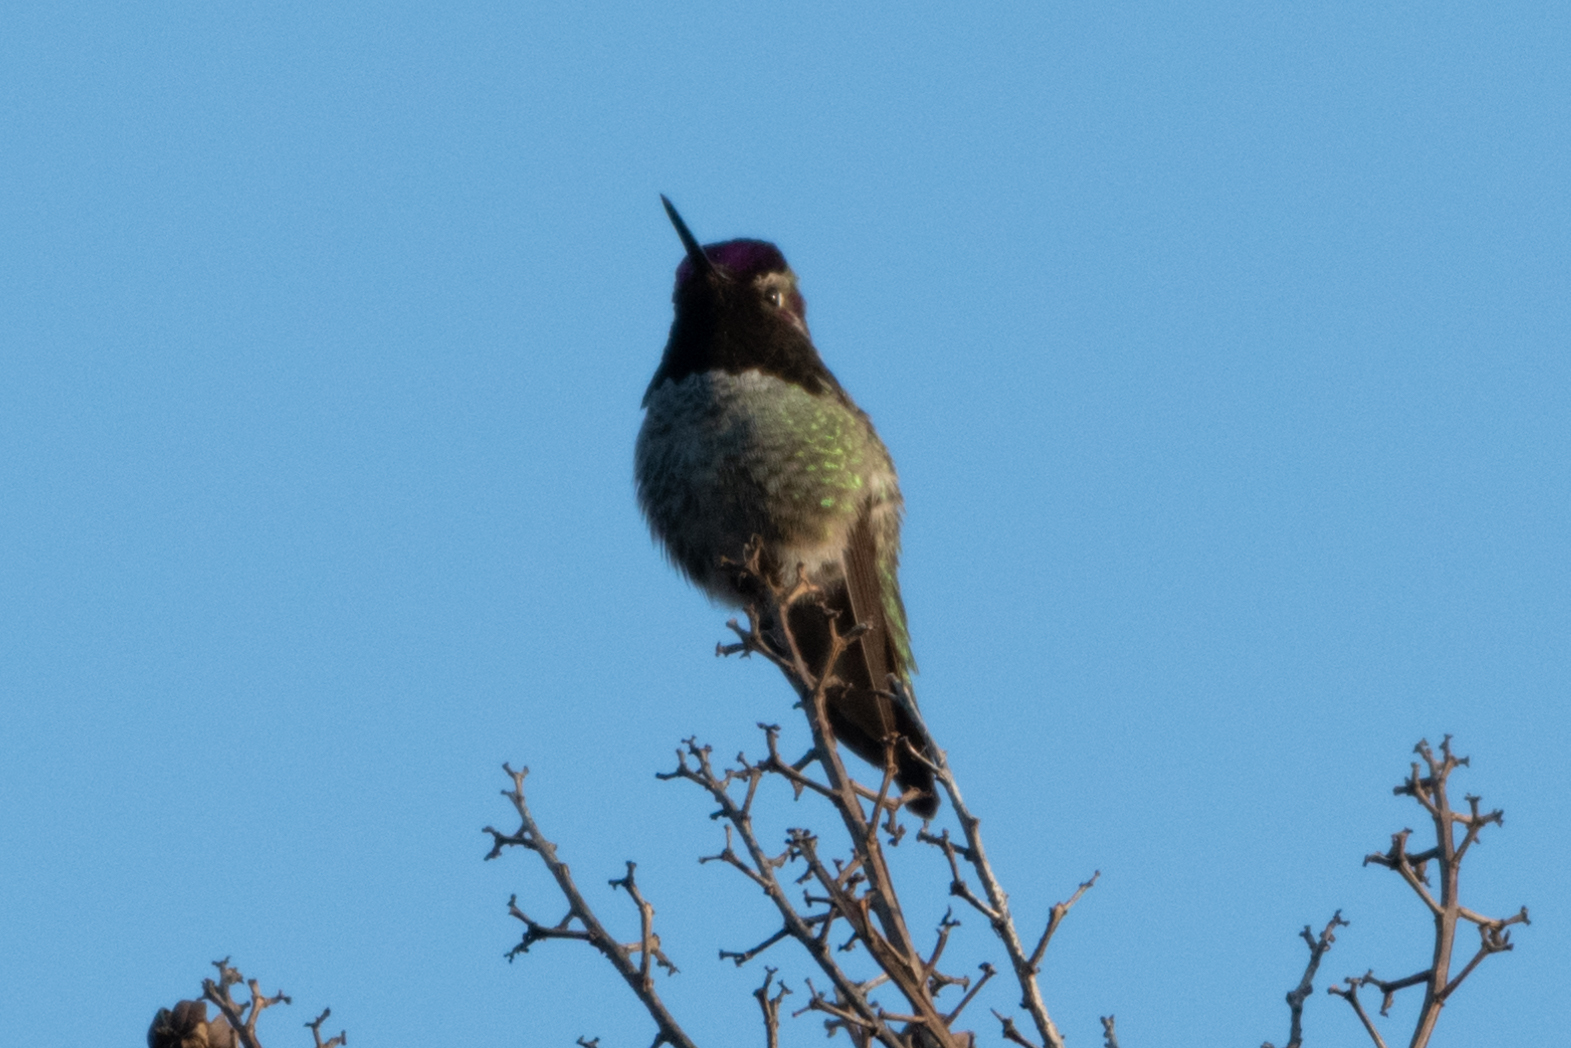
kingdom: Animalia
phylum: Chordata
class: Aves
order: Apodiformes
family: Trochilidae
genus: Calypte
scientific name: Calypte anna
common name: Anna's hummingbird
